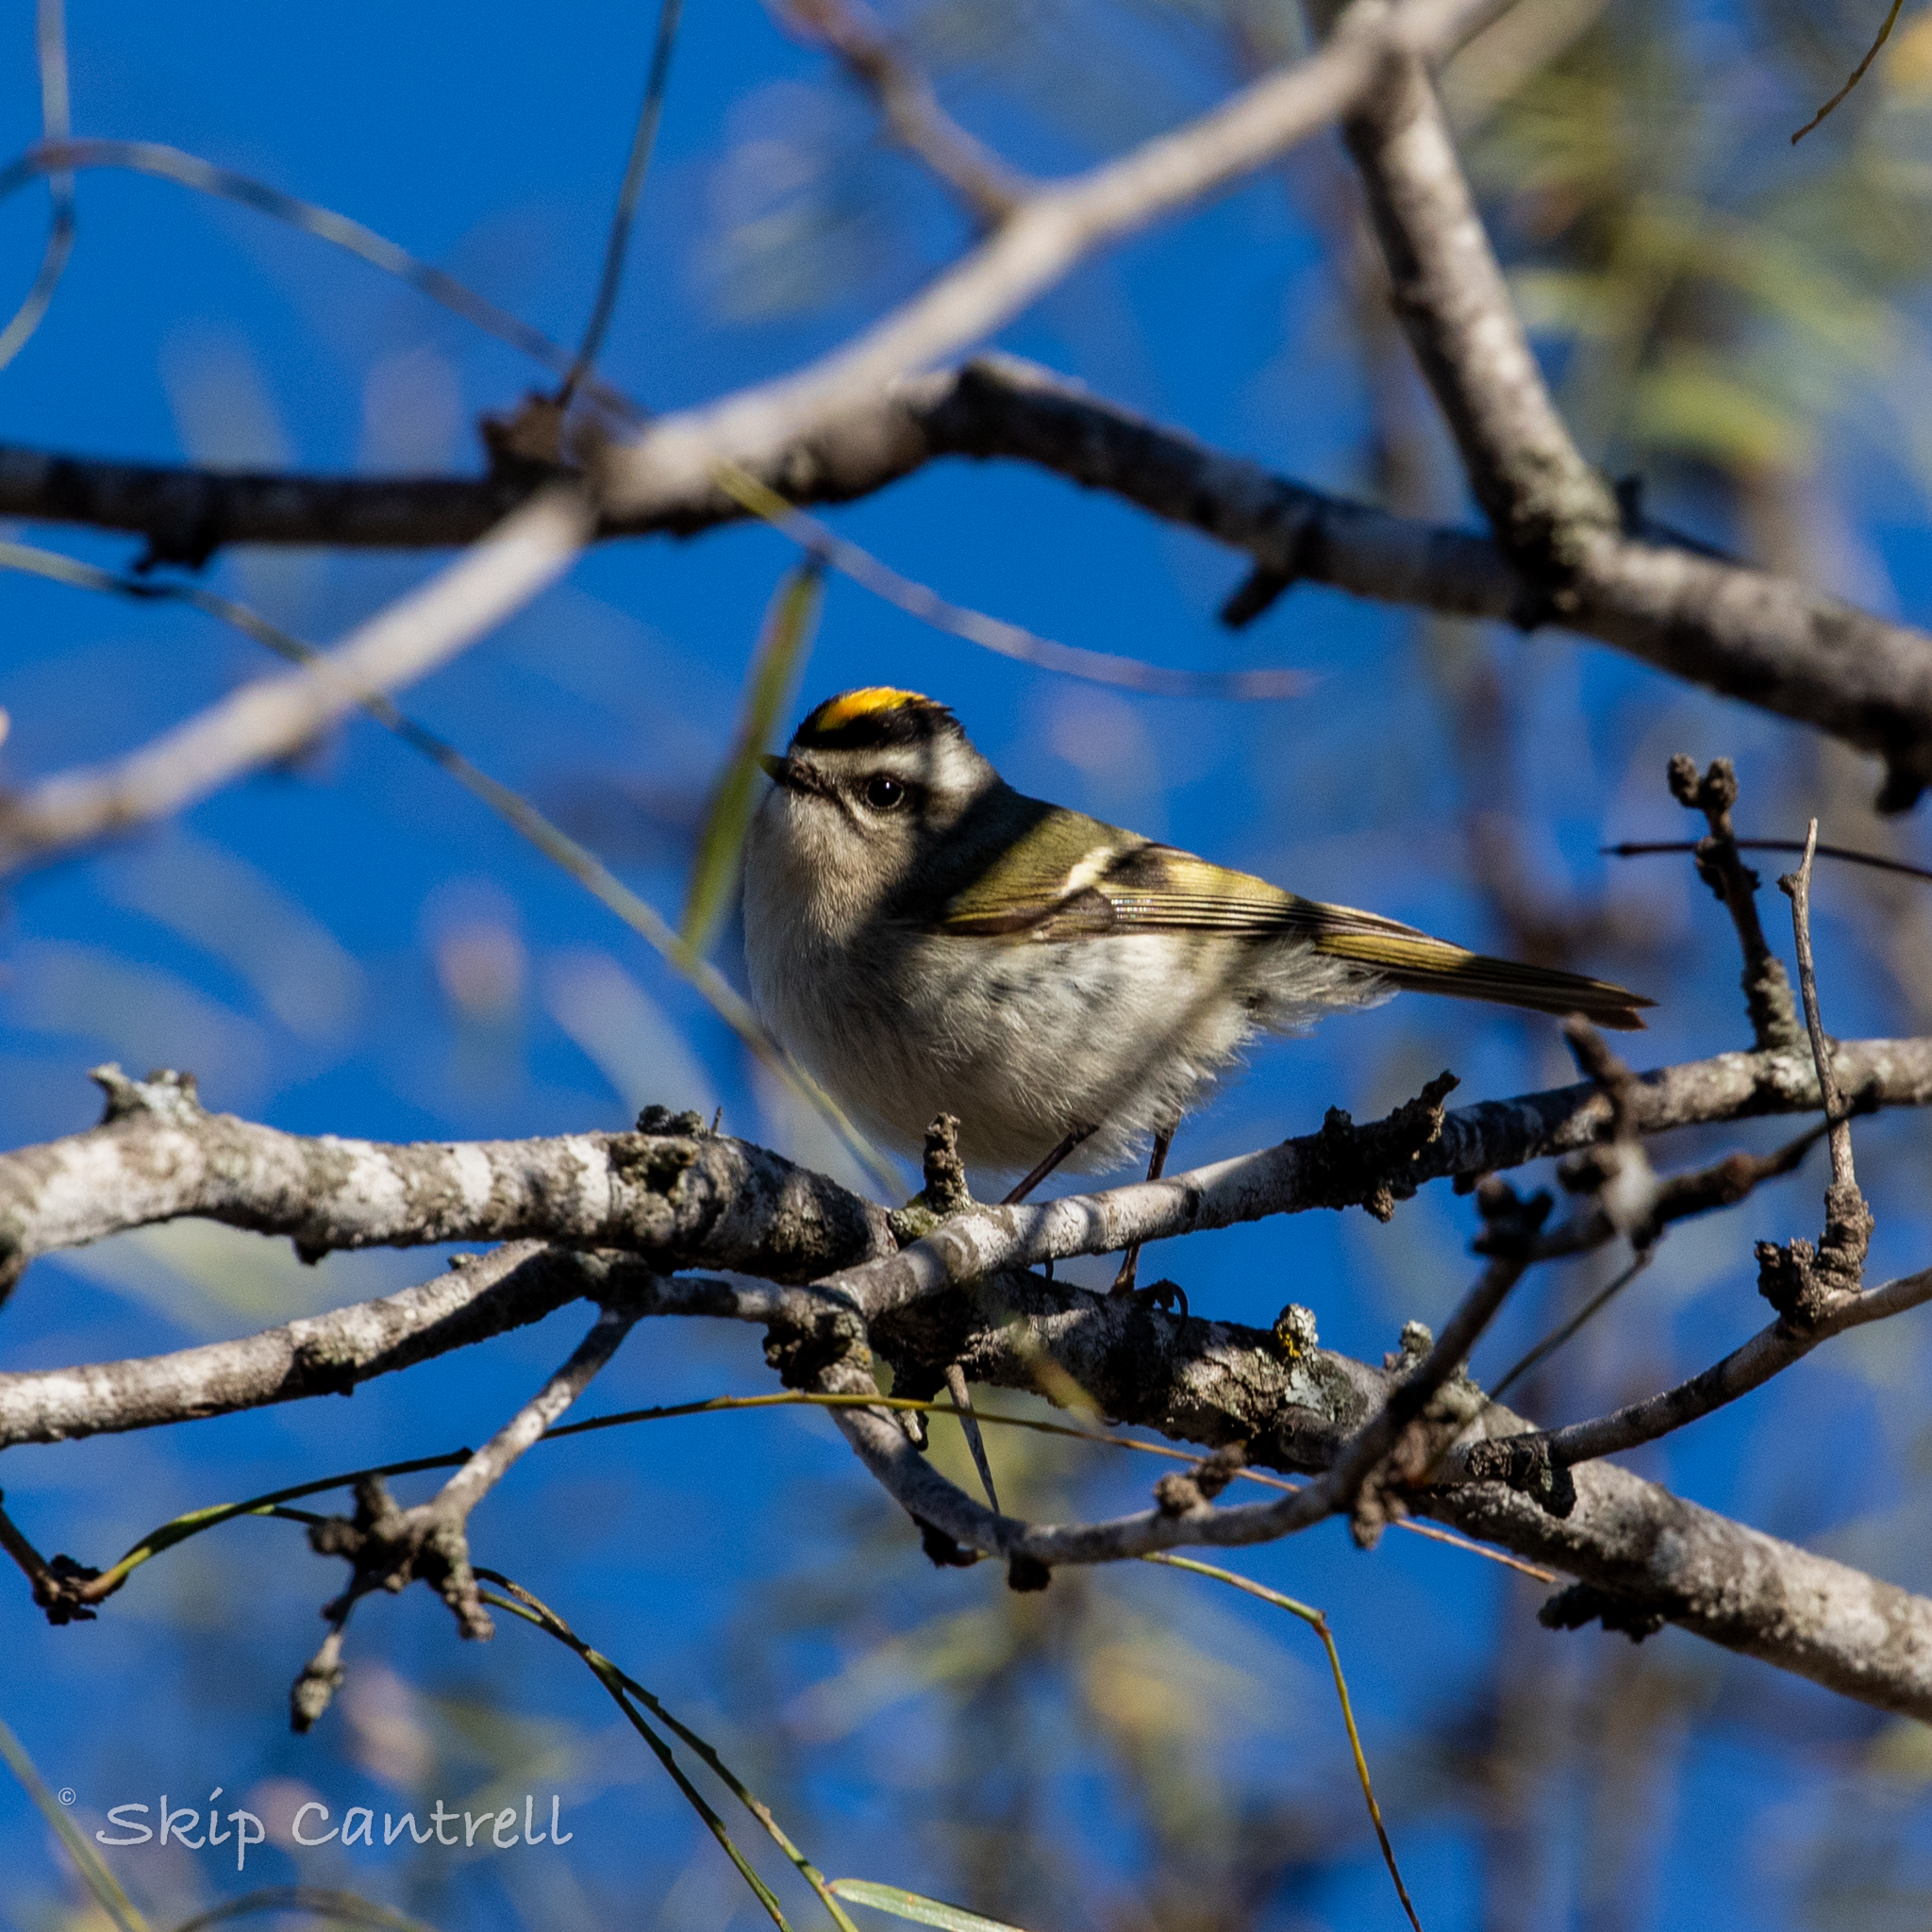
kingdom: Animalia
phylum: Chordata
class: Aves
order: Passeriformes
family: Regulidae
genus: Regulus
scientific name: Regulus satrapa
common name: Golden-crowned kinglet
